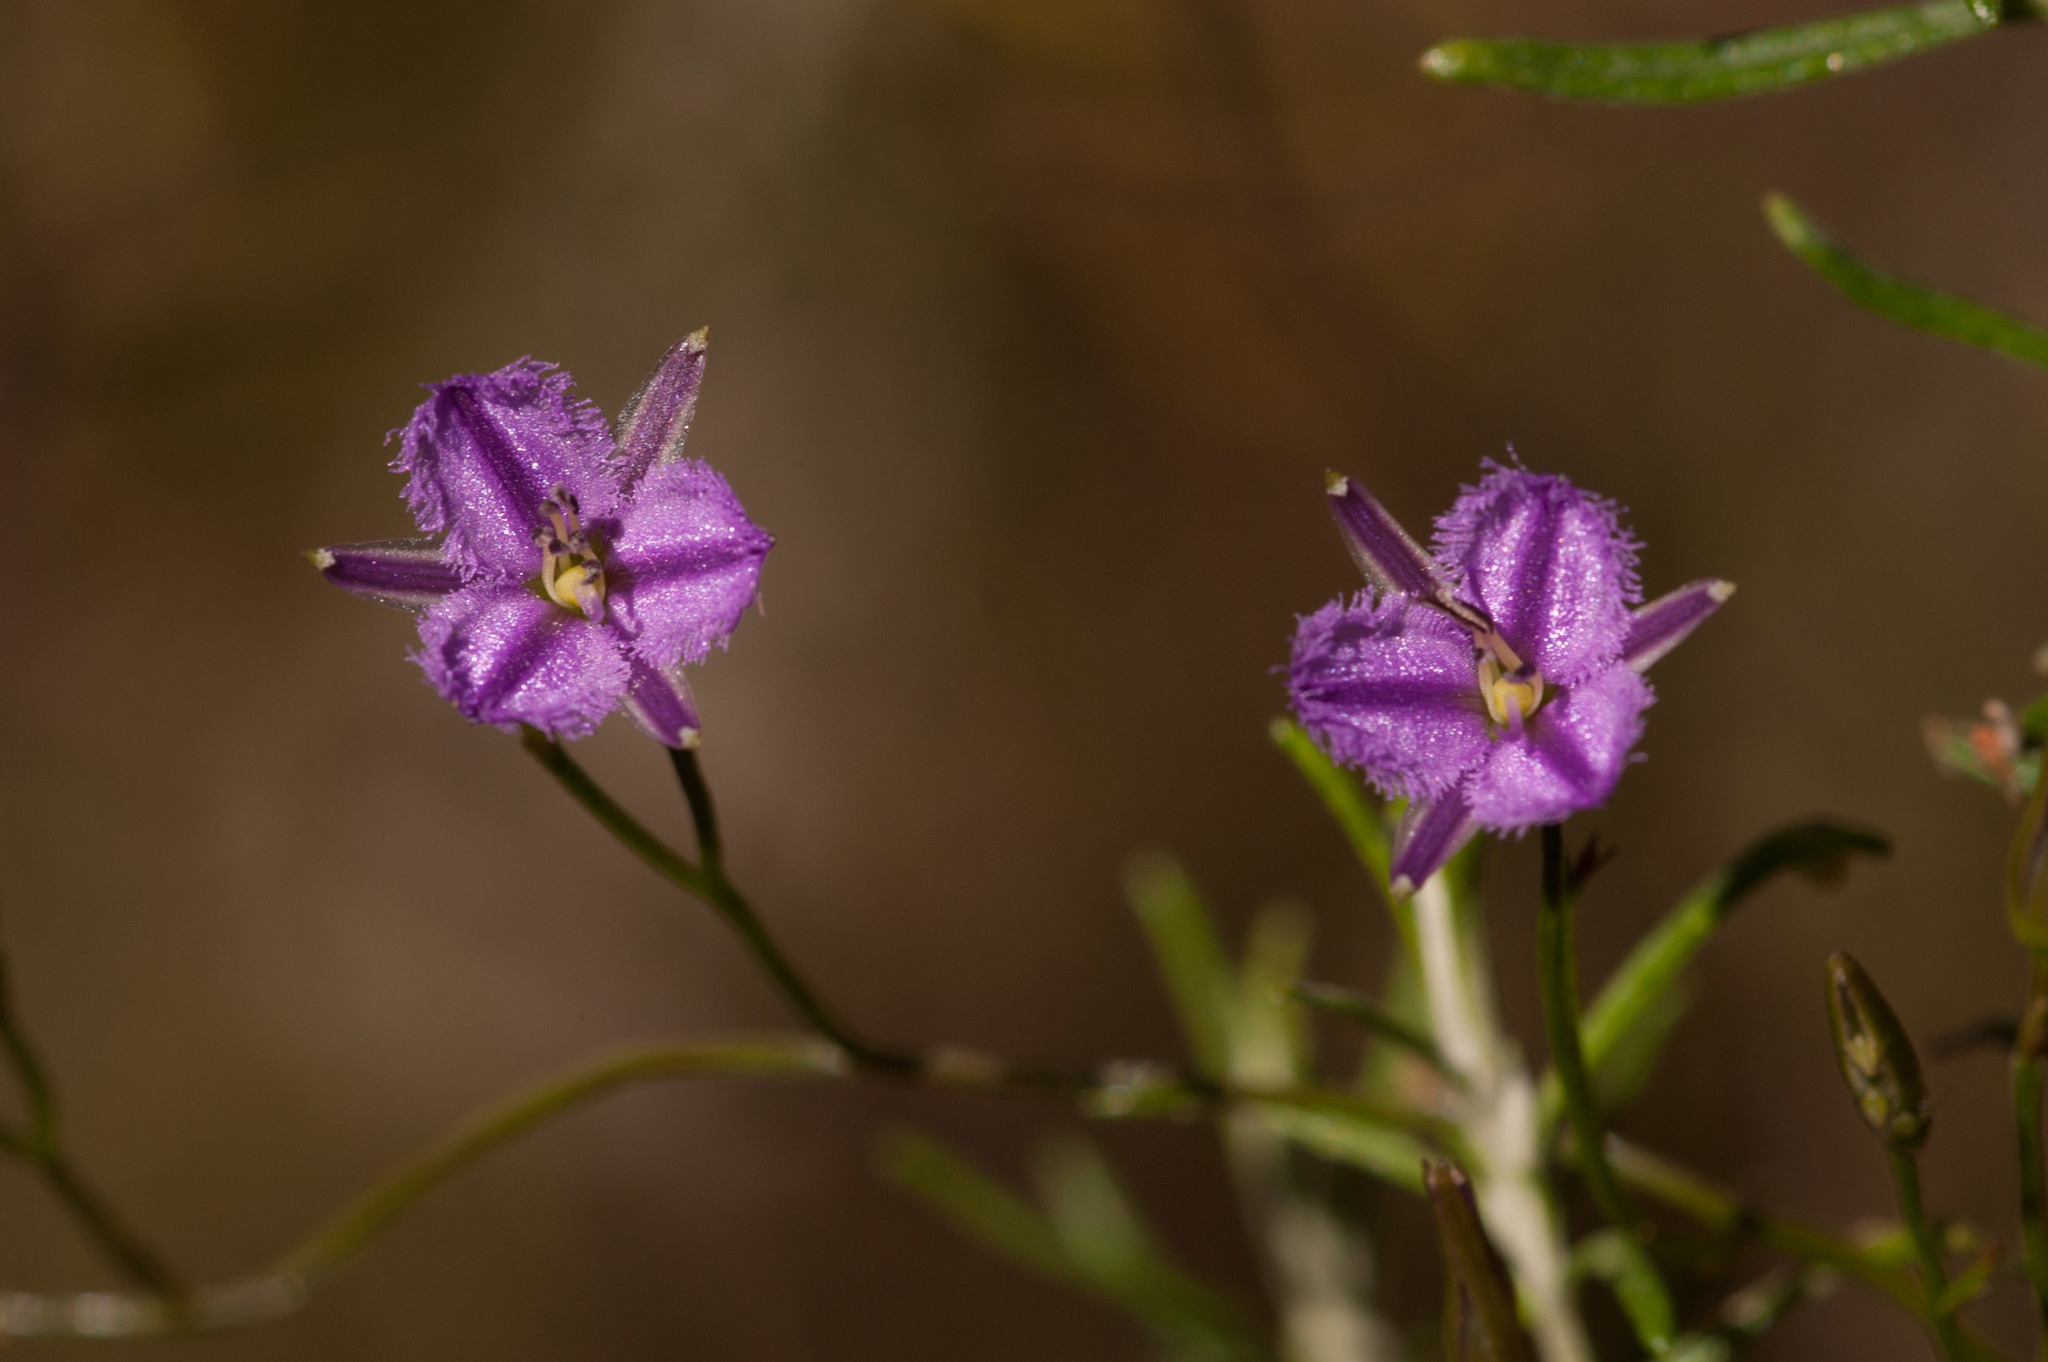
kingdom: Plantae
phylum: Tracheophyta
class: Liliopsida
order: Asparagales
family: Asparagaceae
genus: Thysanotus
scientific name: Thysanotus
